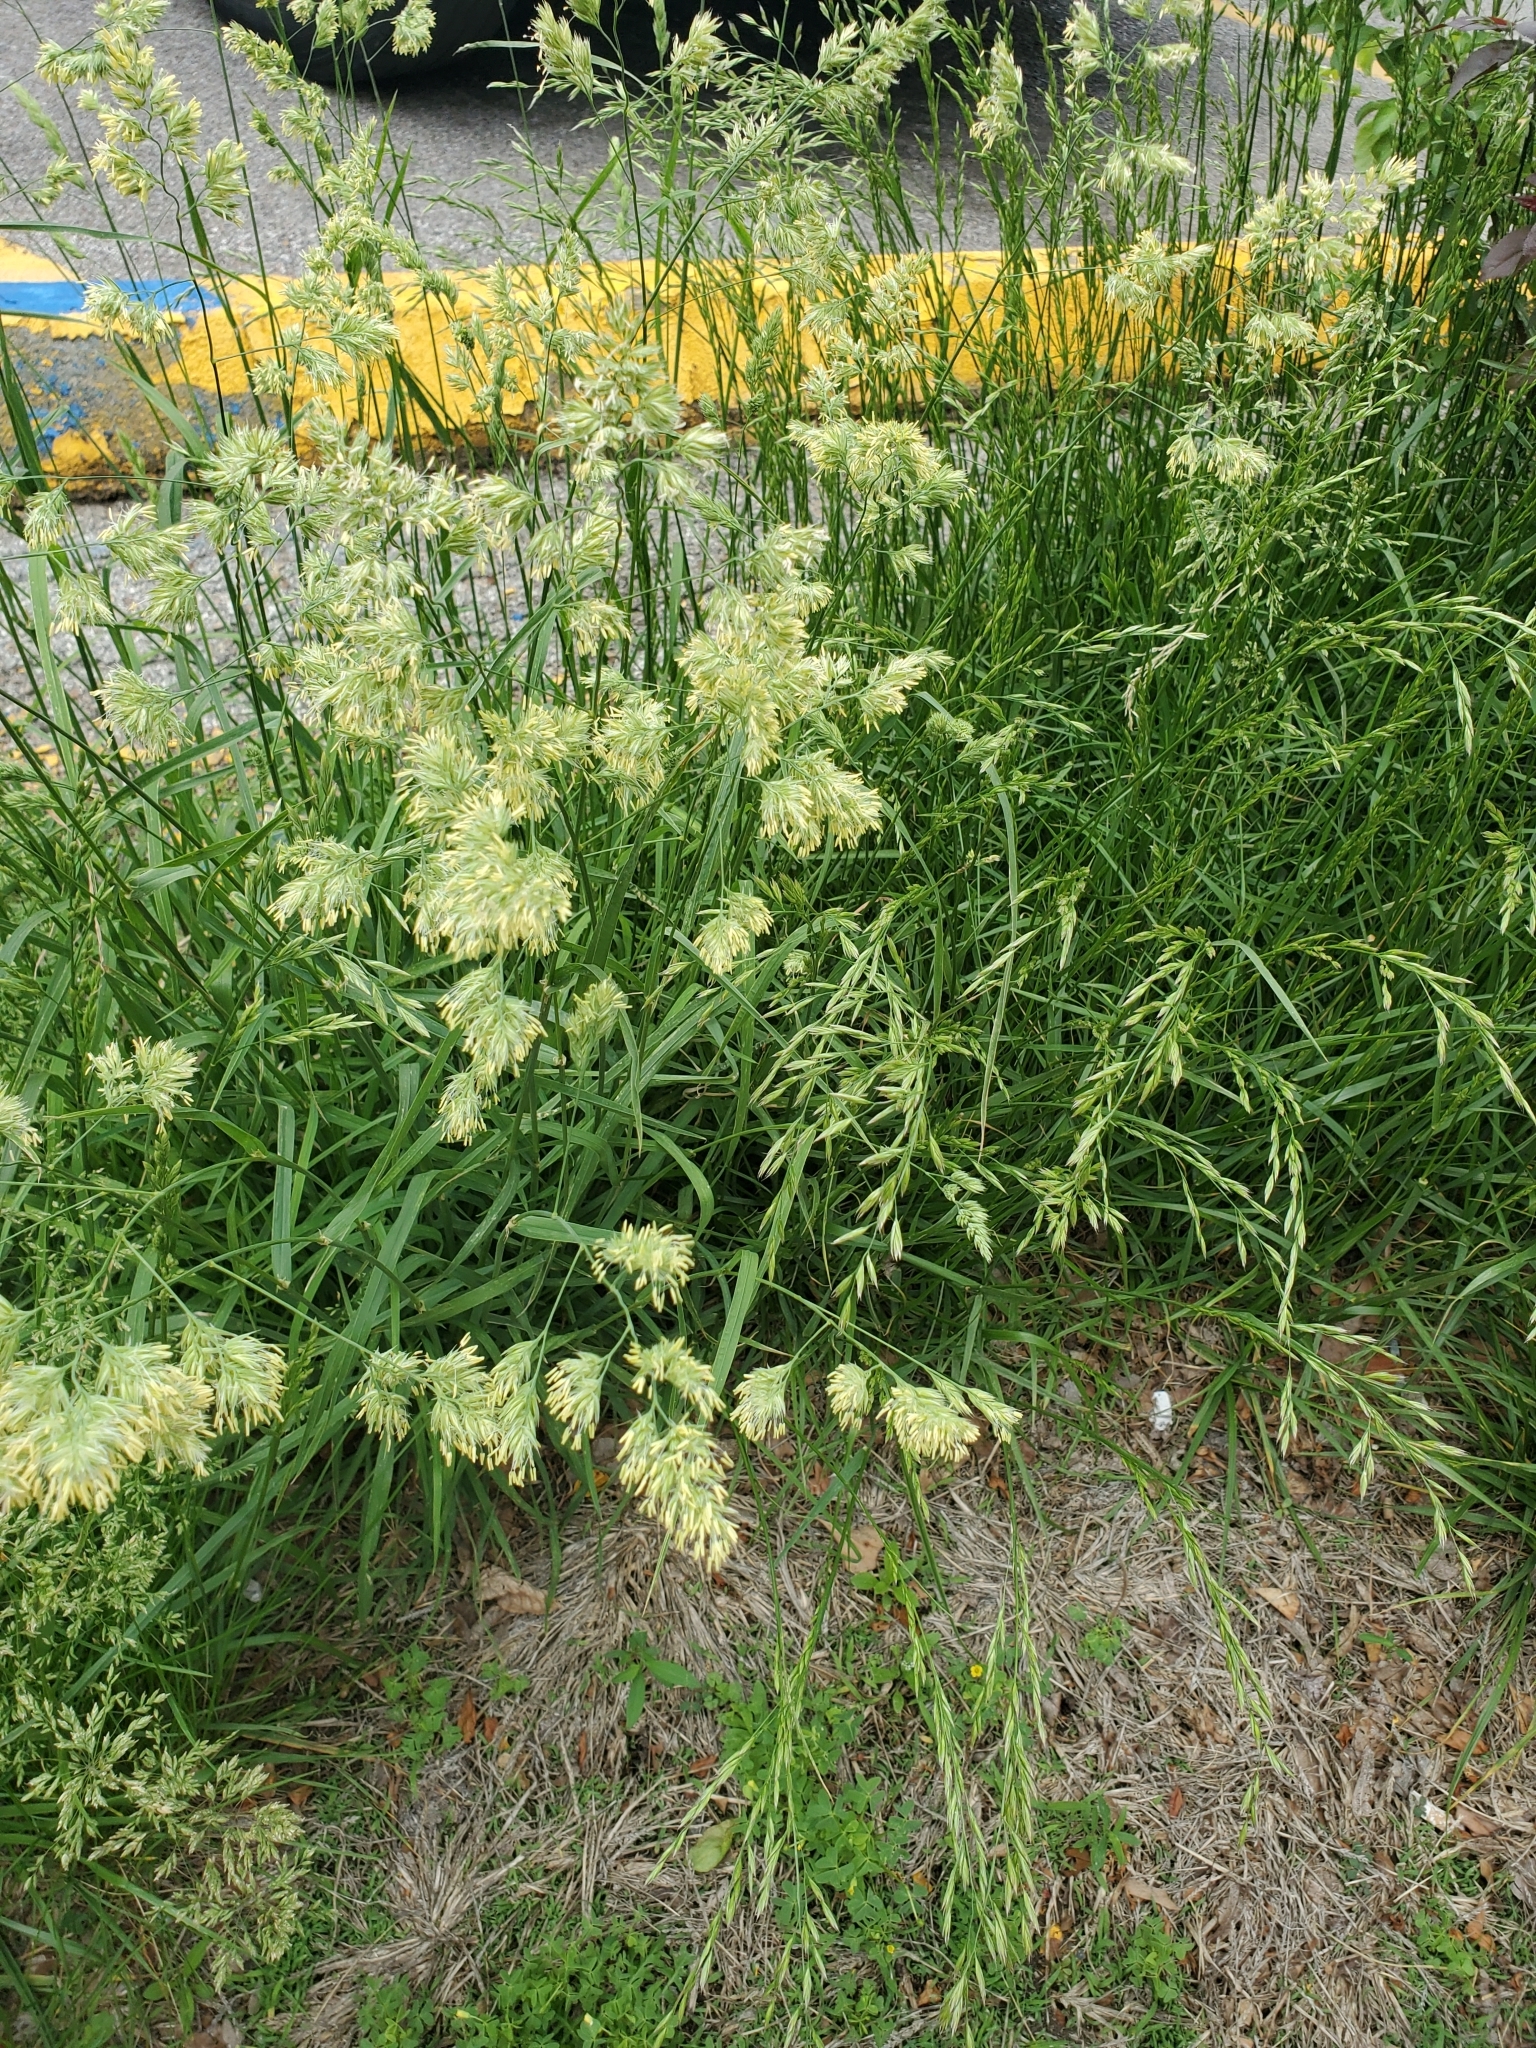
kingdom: Plantae
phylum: Tracheophyta
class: Liliopsida
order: Poales
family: Poaceae
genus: Dactylis
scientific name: Dactylis glomerata
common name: Orchardgrass
